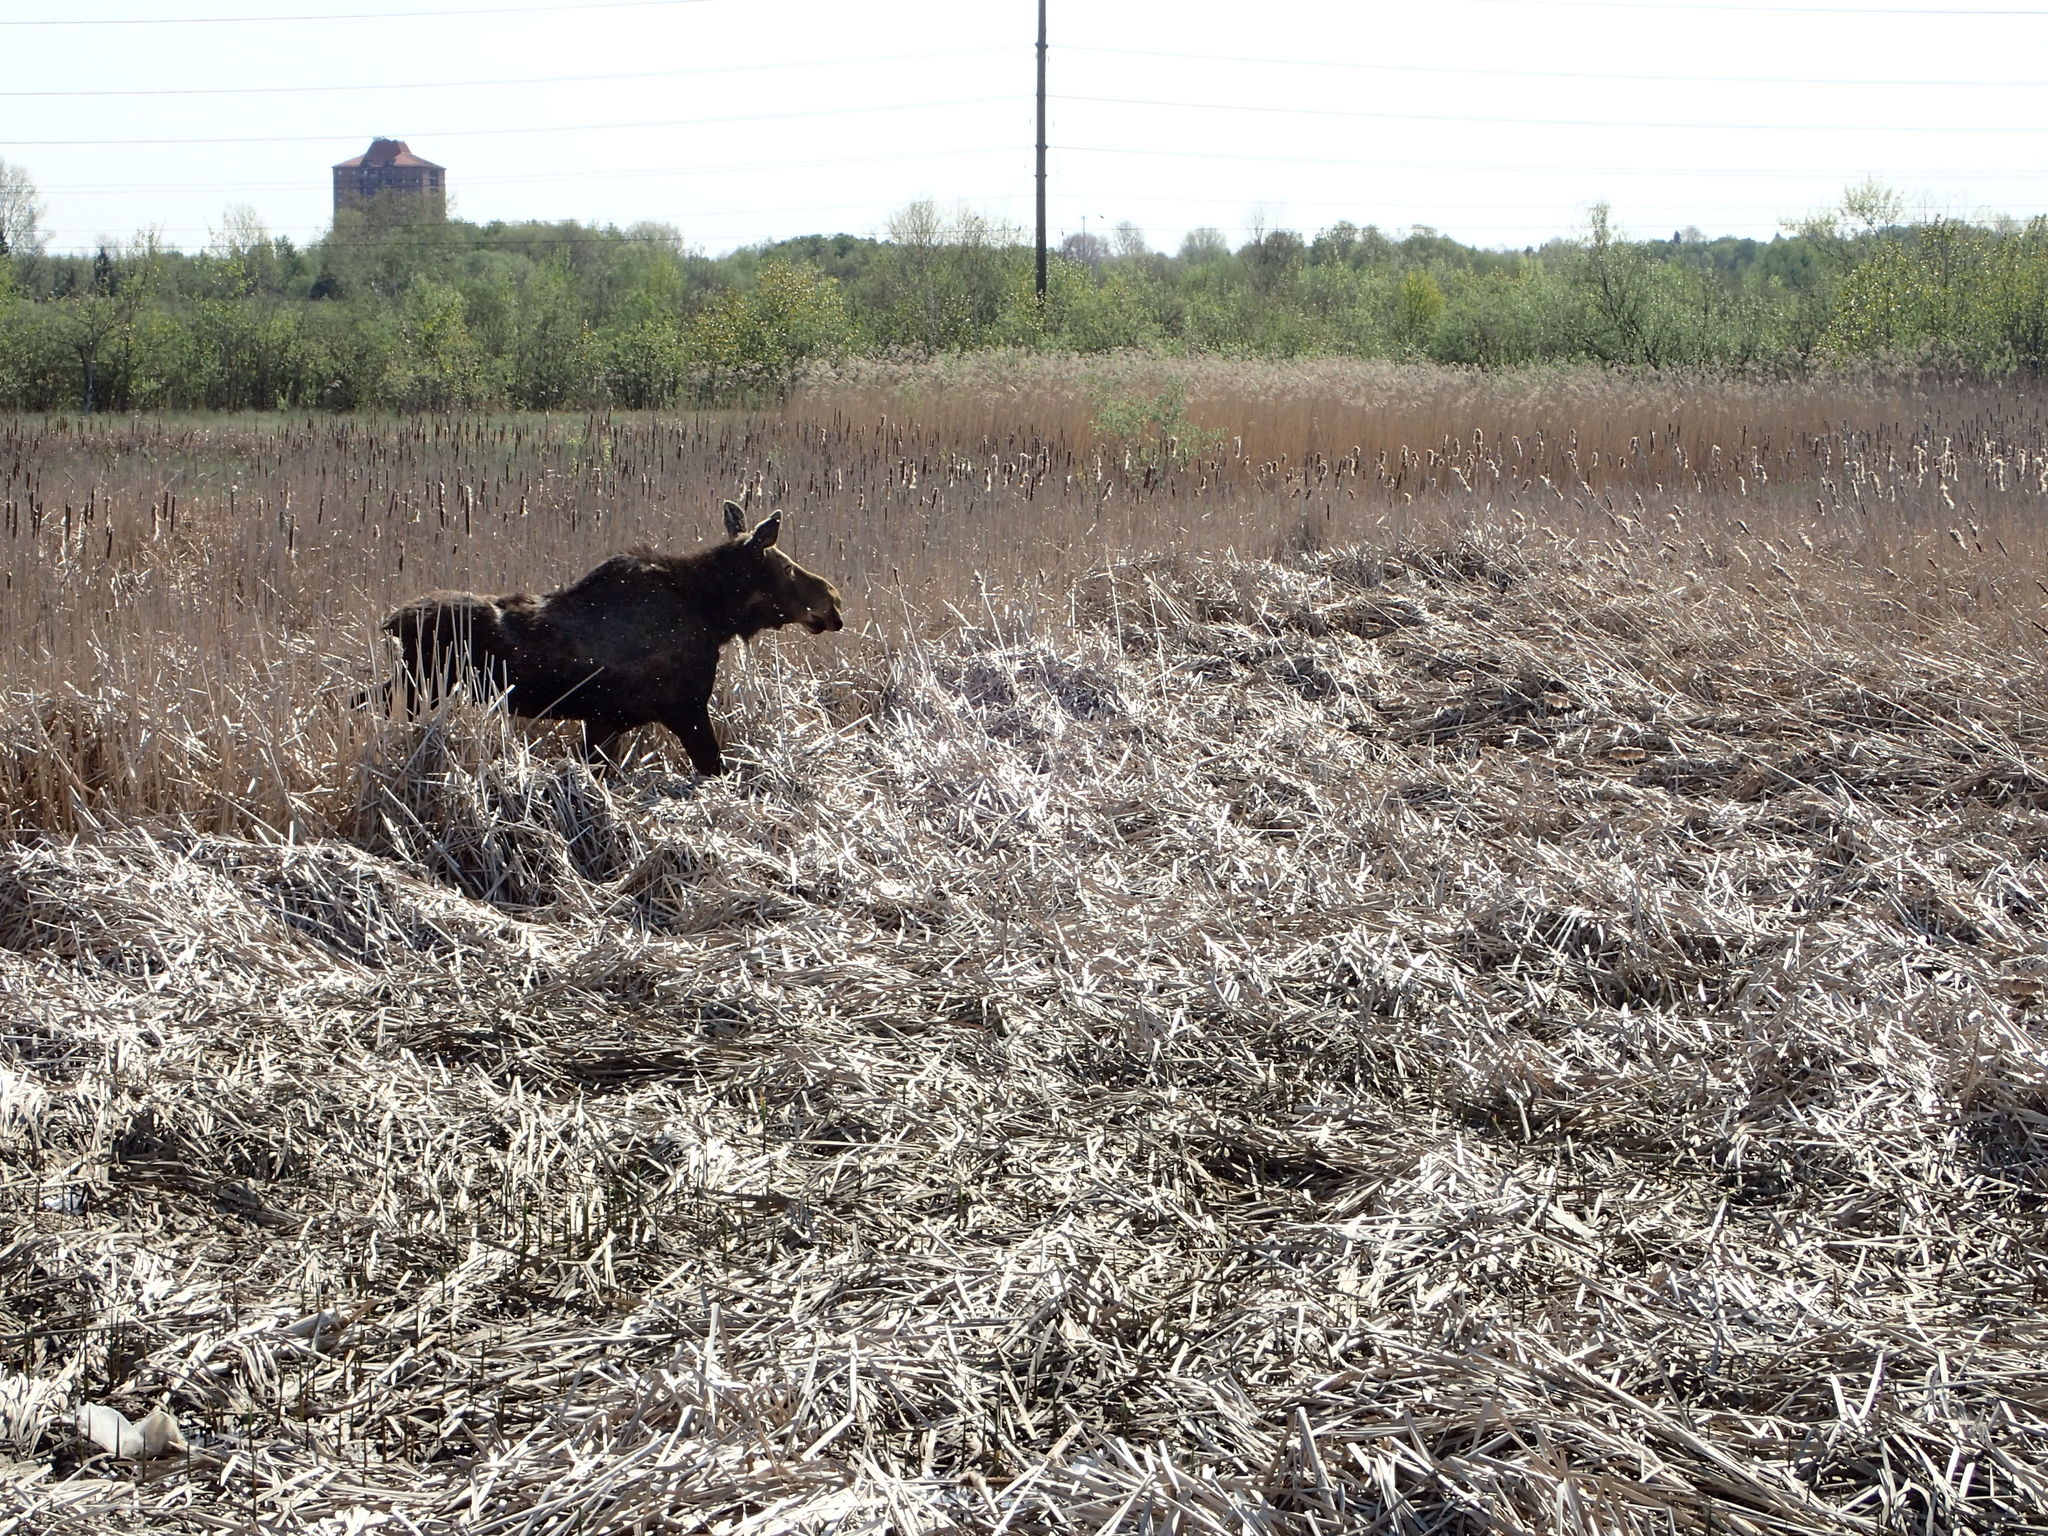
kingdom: Animalia
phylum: Chordata
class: Mammalia
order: Artiodactyla
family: Cervidae
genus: Alces
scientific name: Alces alces
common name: Moose
